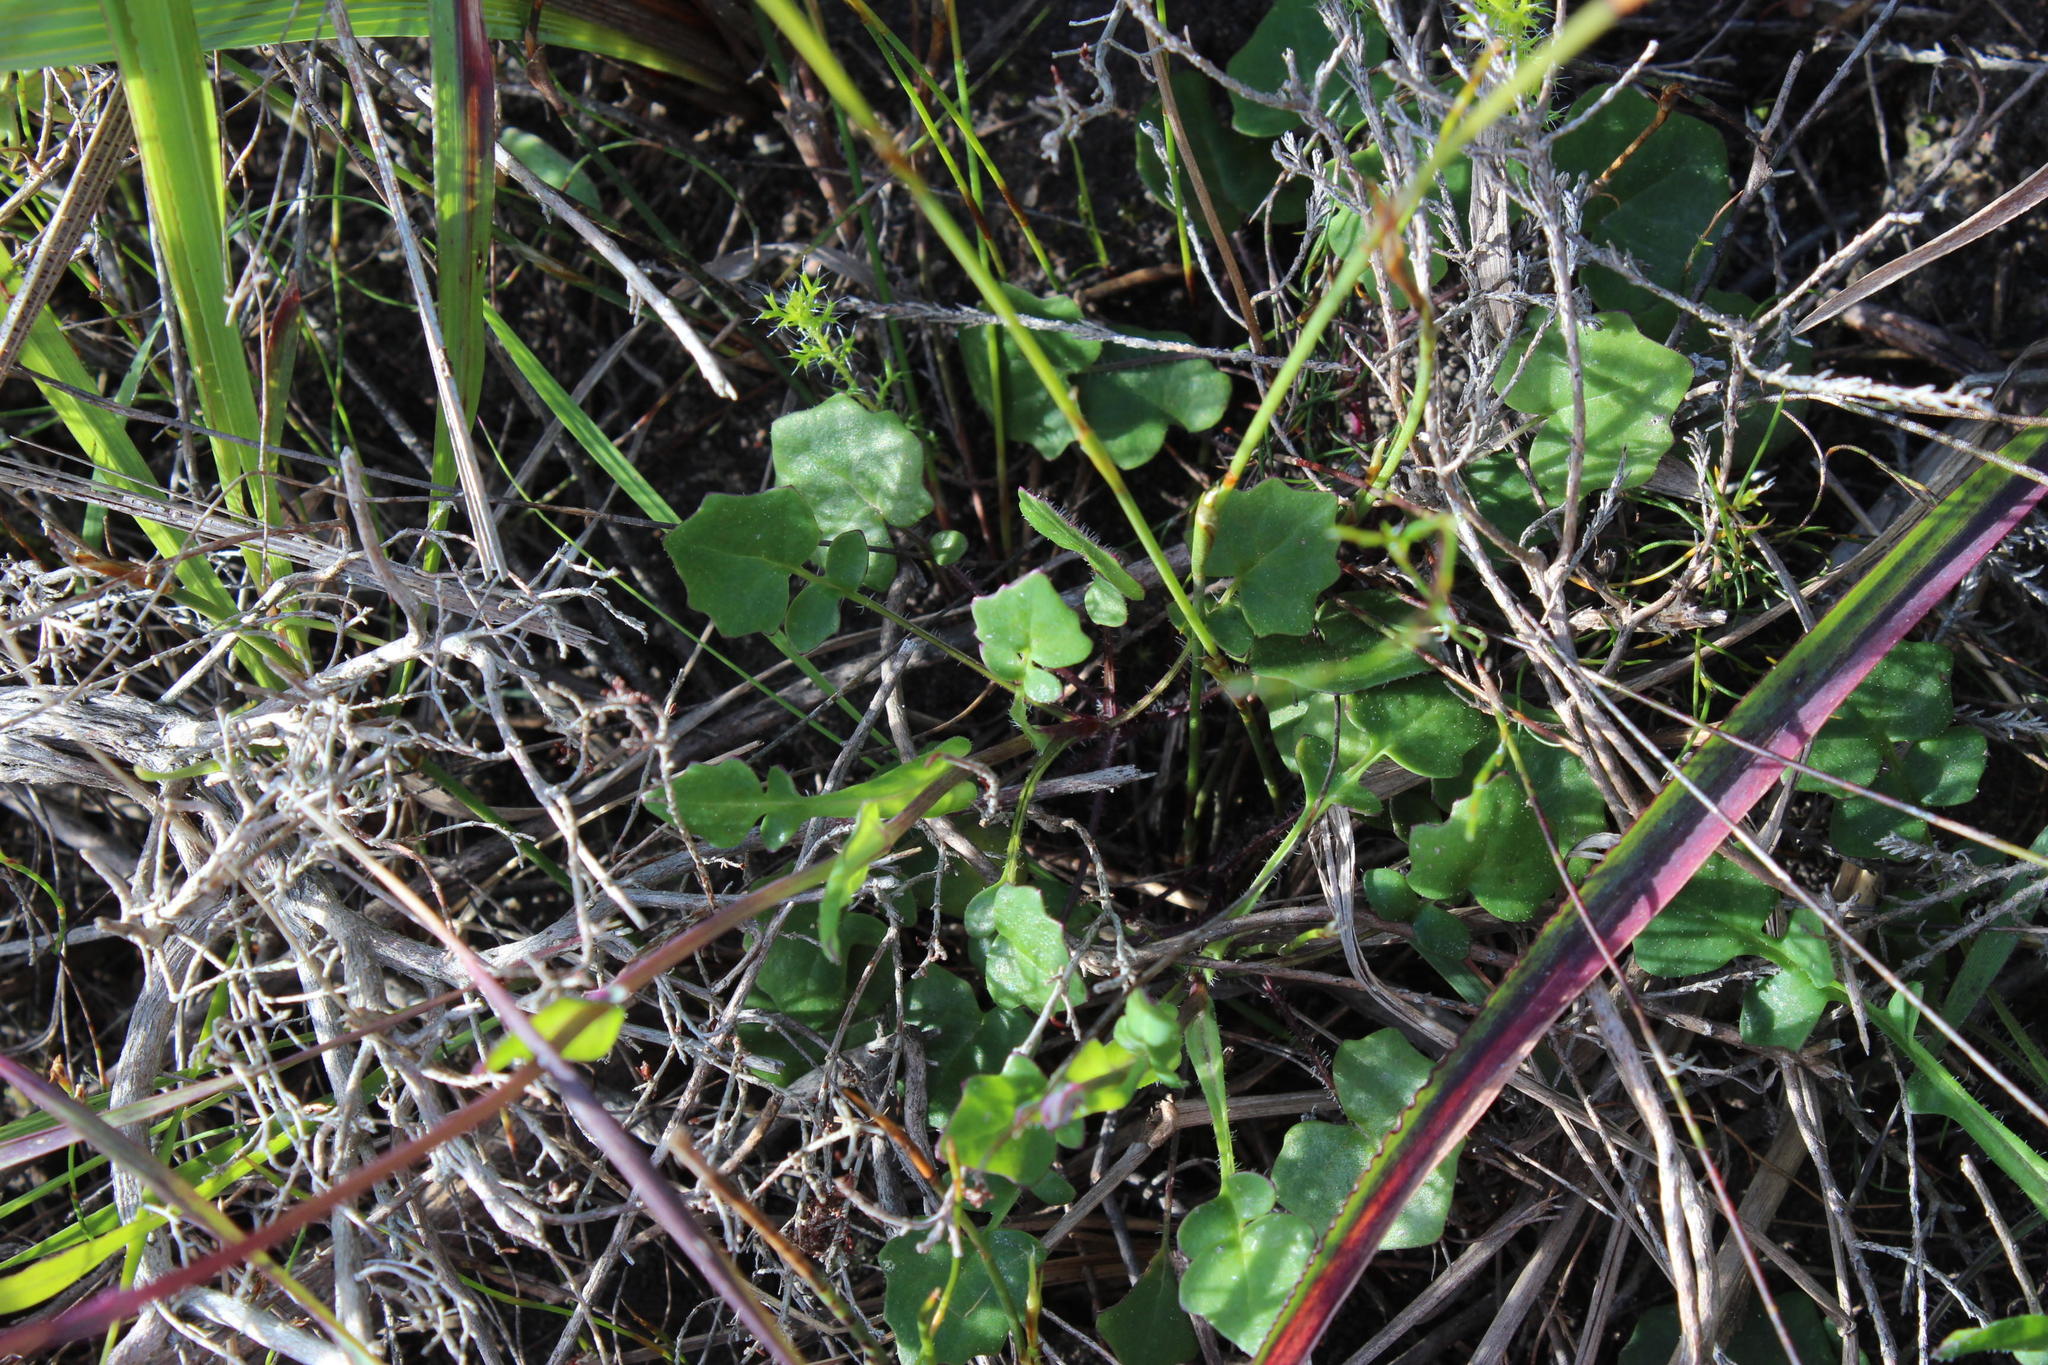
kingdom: Plantae
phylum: Tracheophyta
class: Magnoliopsida
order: Asterales
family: Asteraceae
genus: Bolandia
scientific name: Bolandia pinnatifida
